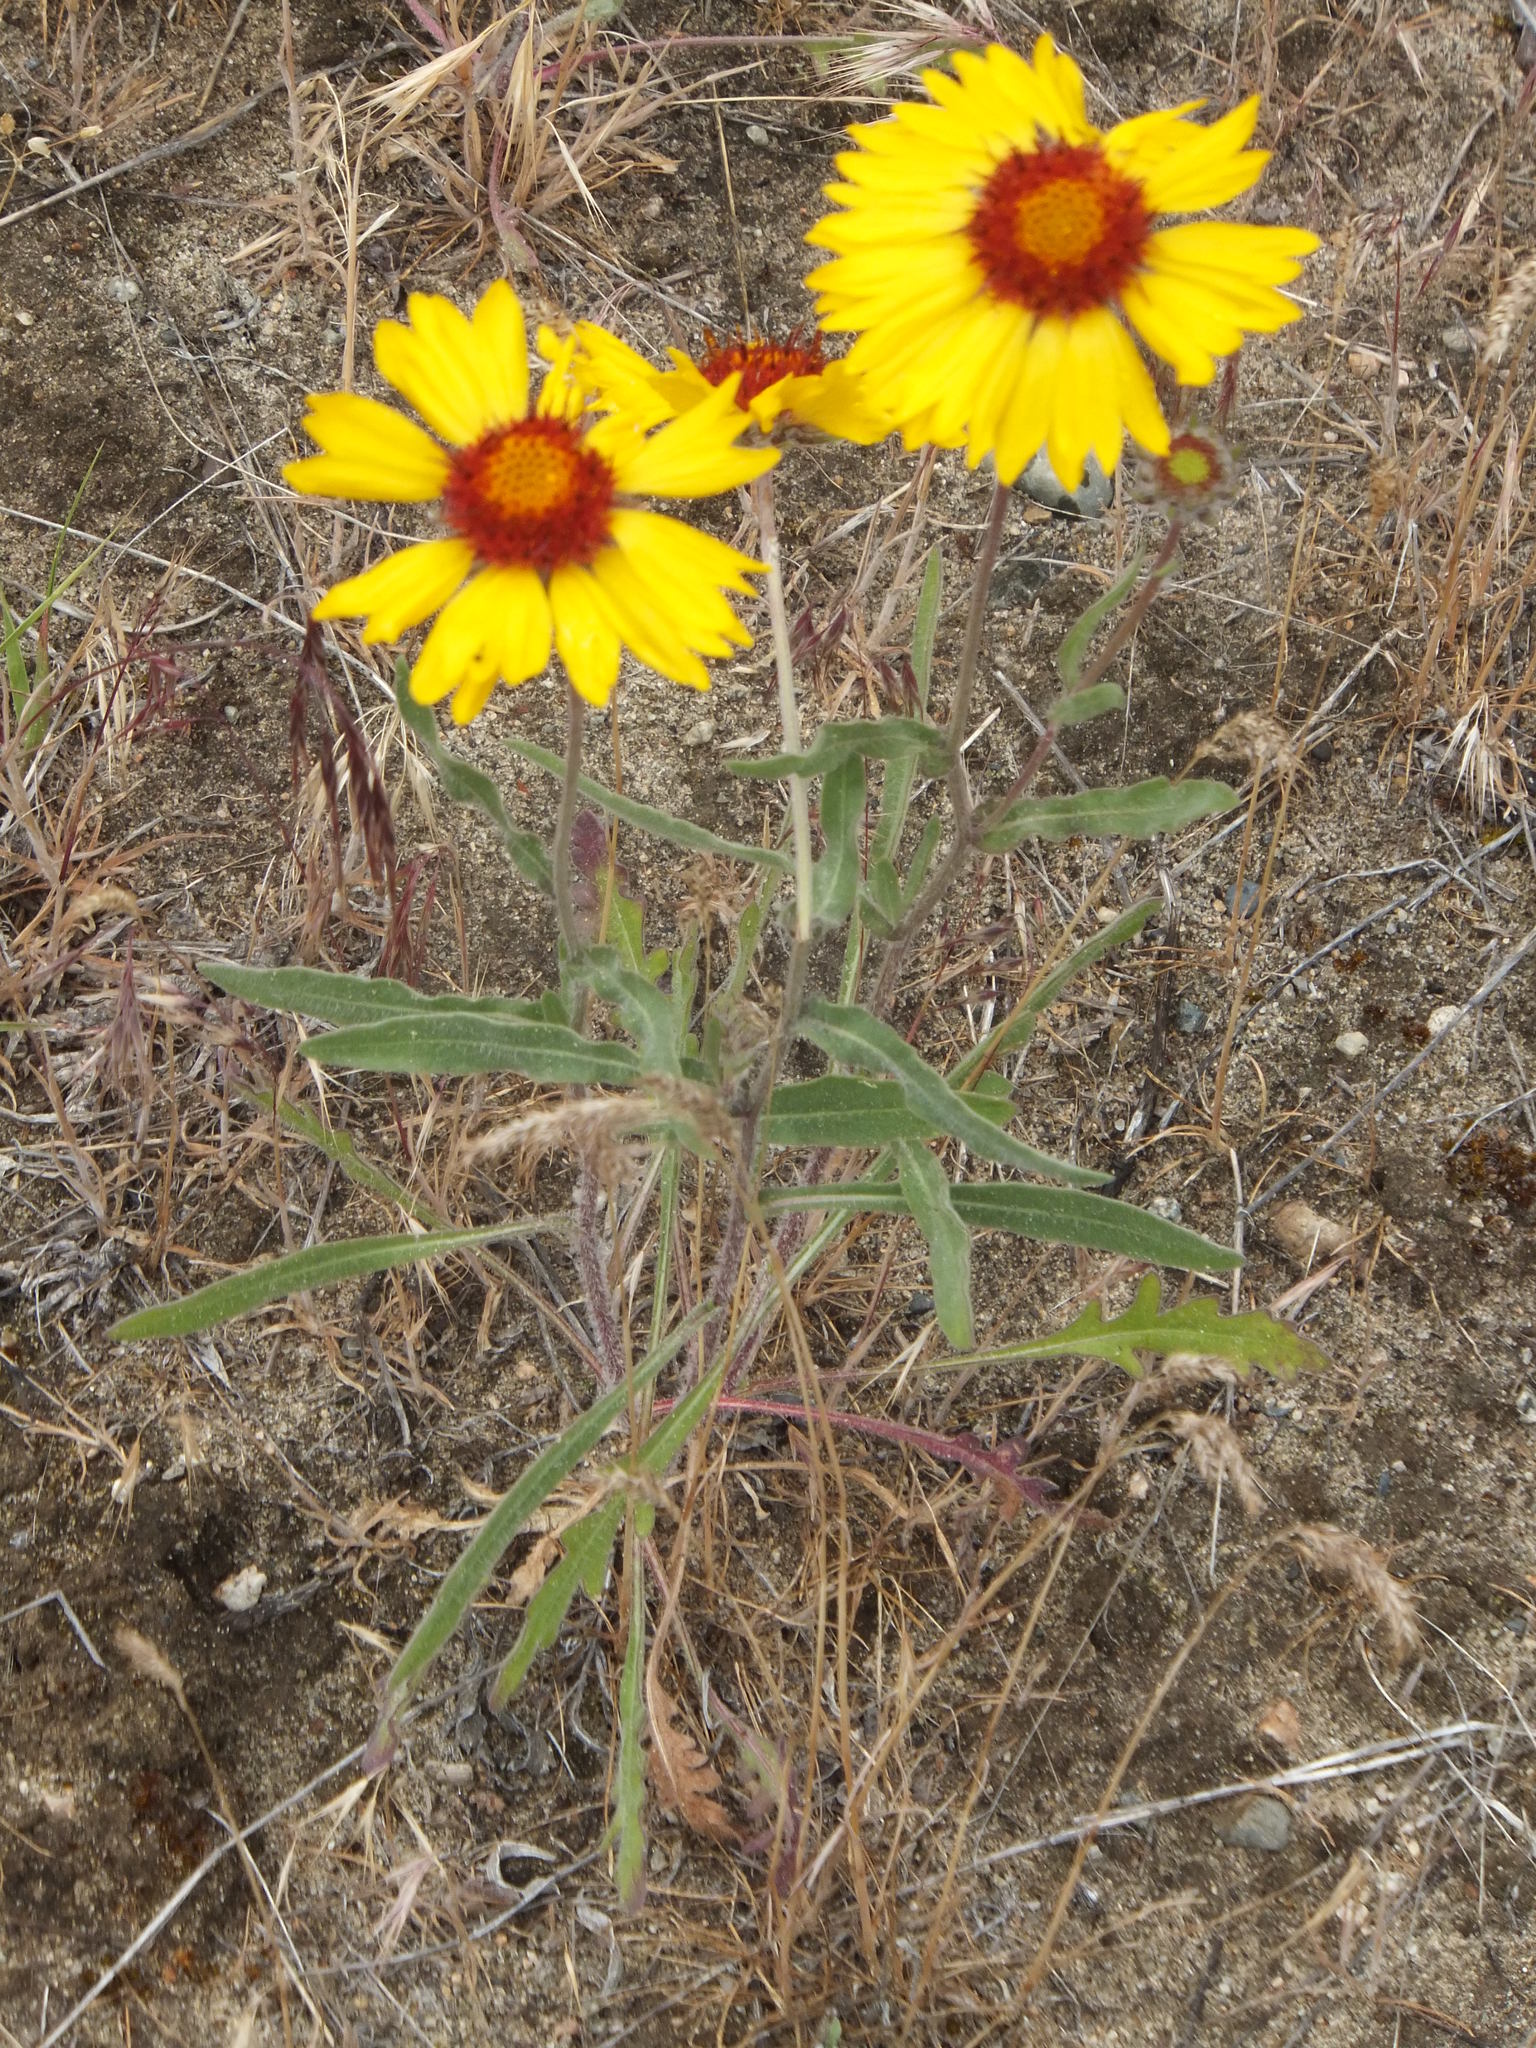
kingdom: Plantae
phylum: Tracheophyta
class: Magnoliopsida
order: Asterales
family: Asteraceae
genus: Gaillardia
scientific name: Gaillardia aristata
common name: Blanket-flower
